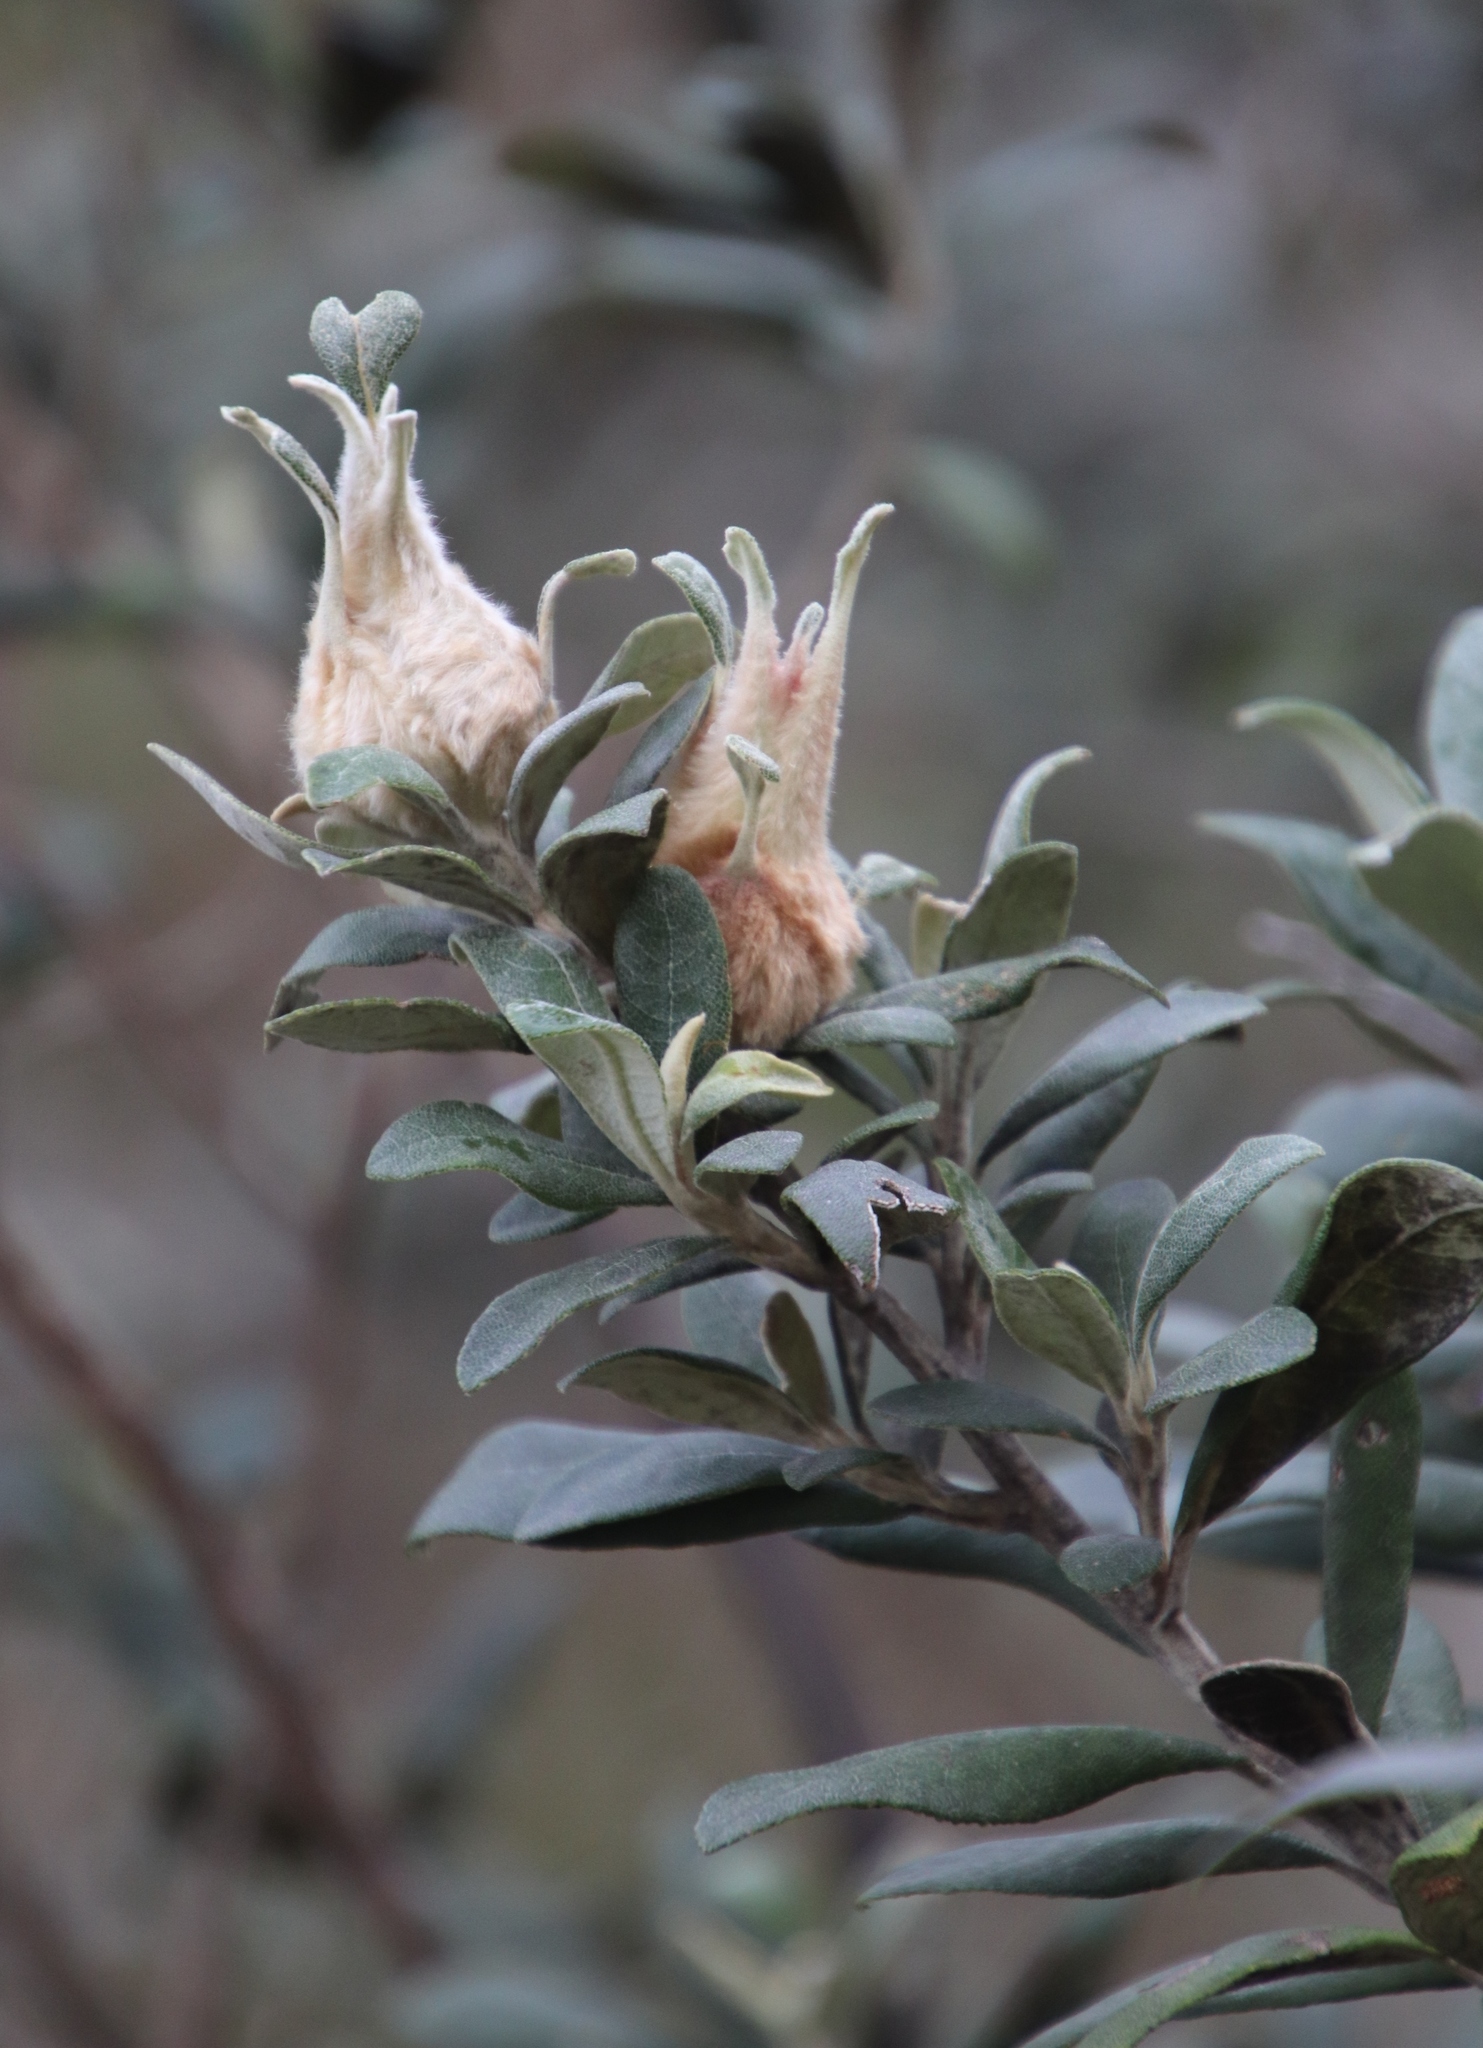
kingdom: Plantae
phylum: Tracheophyta
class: Magnoliopsida
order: Asterales
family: Asteraceae
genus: Tarchonanthus
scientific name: Tarchonanthus littoralis
